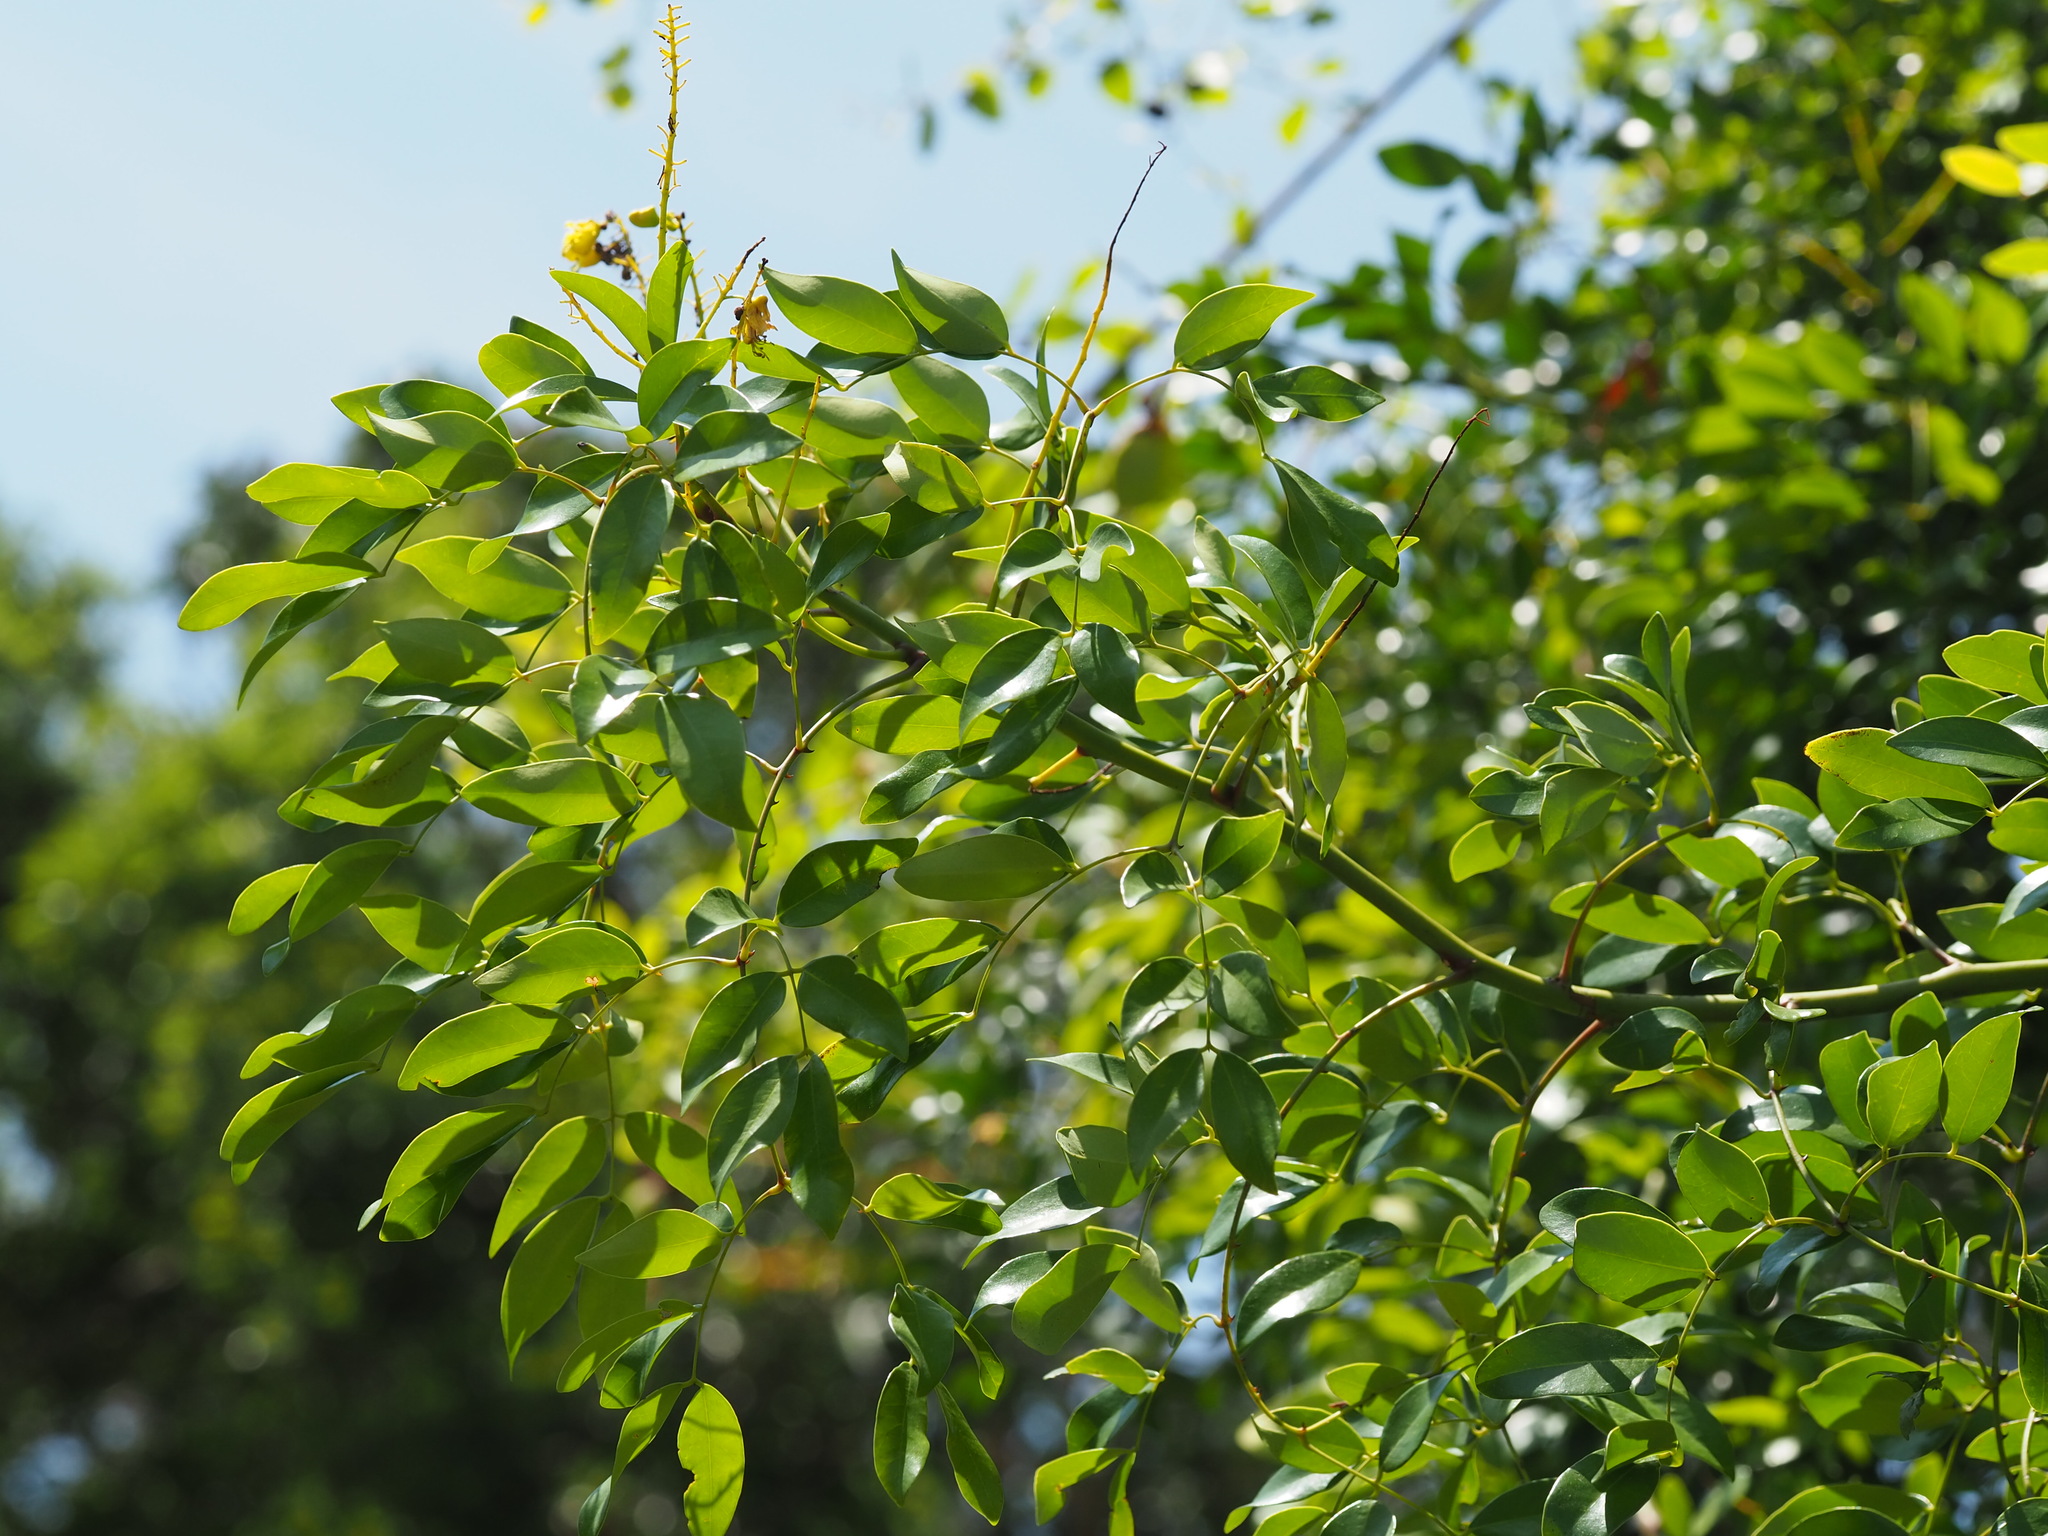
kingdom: Plantae
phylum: Tracheophyta
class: Magnoliopsida
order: Fabales
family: Fabaceae
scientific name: Fabaceae
